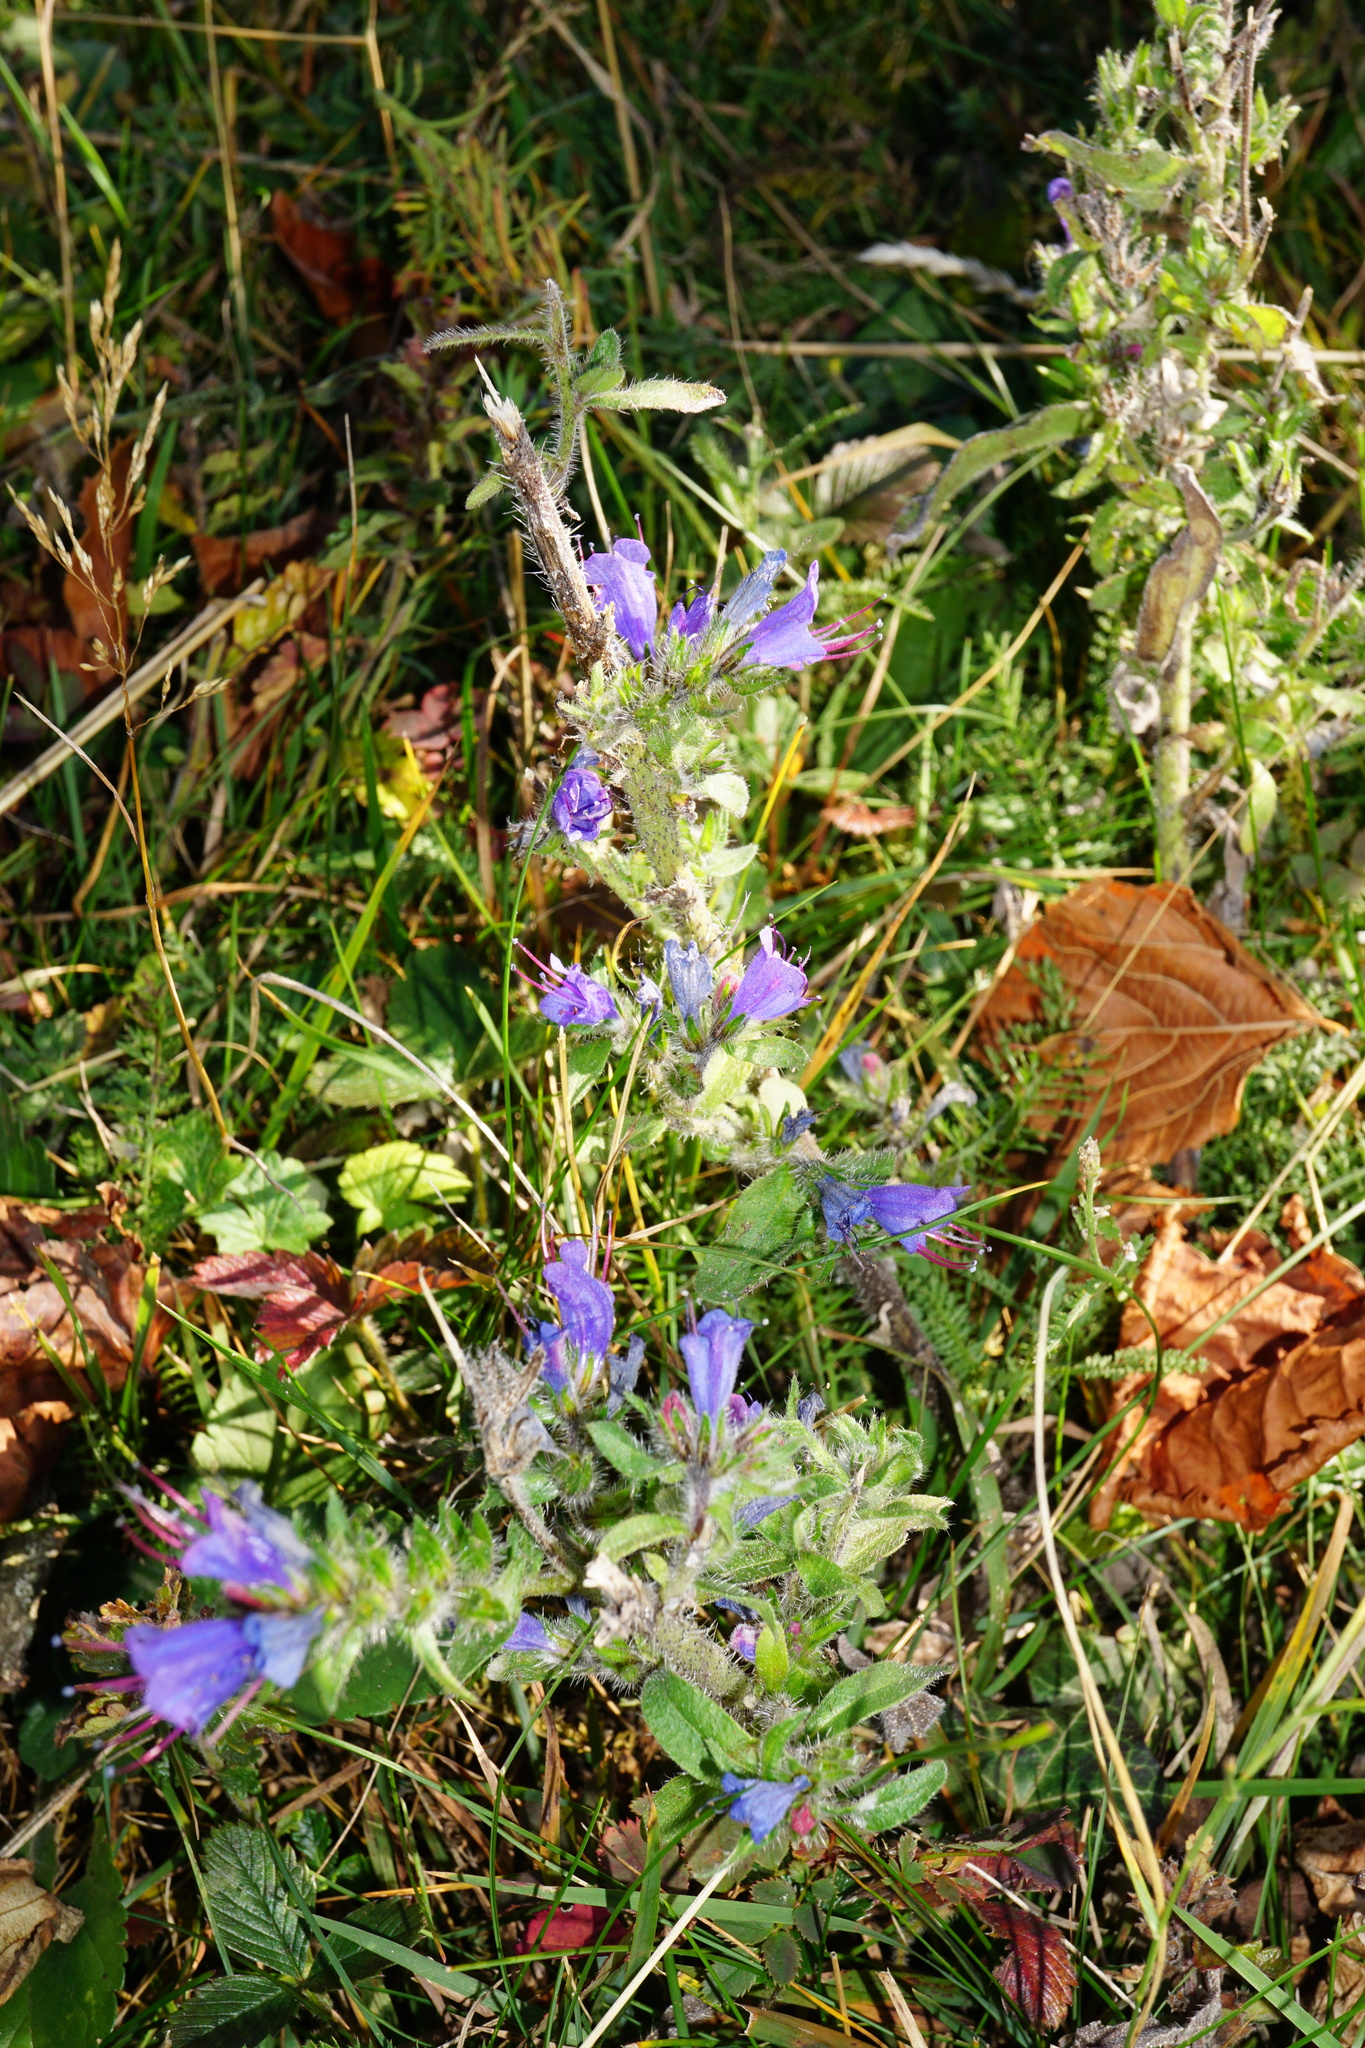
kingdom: Plantae
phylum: Tracheophyta
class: Magnoliopsida
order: Boraginales
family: Boraginaceae
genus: Echium
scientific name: Echium vulgare
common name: Common viper's bugloss
